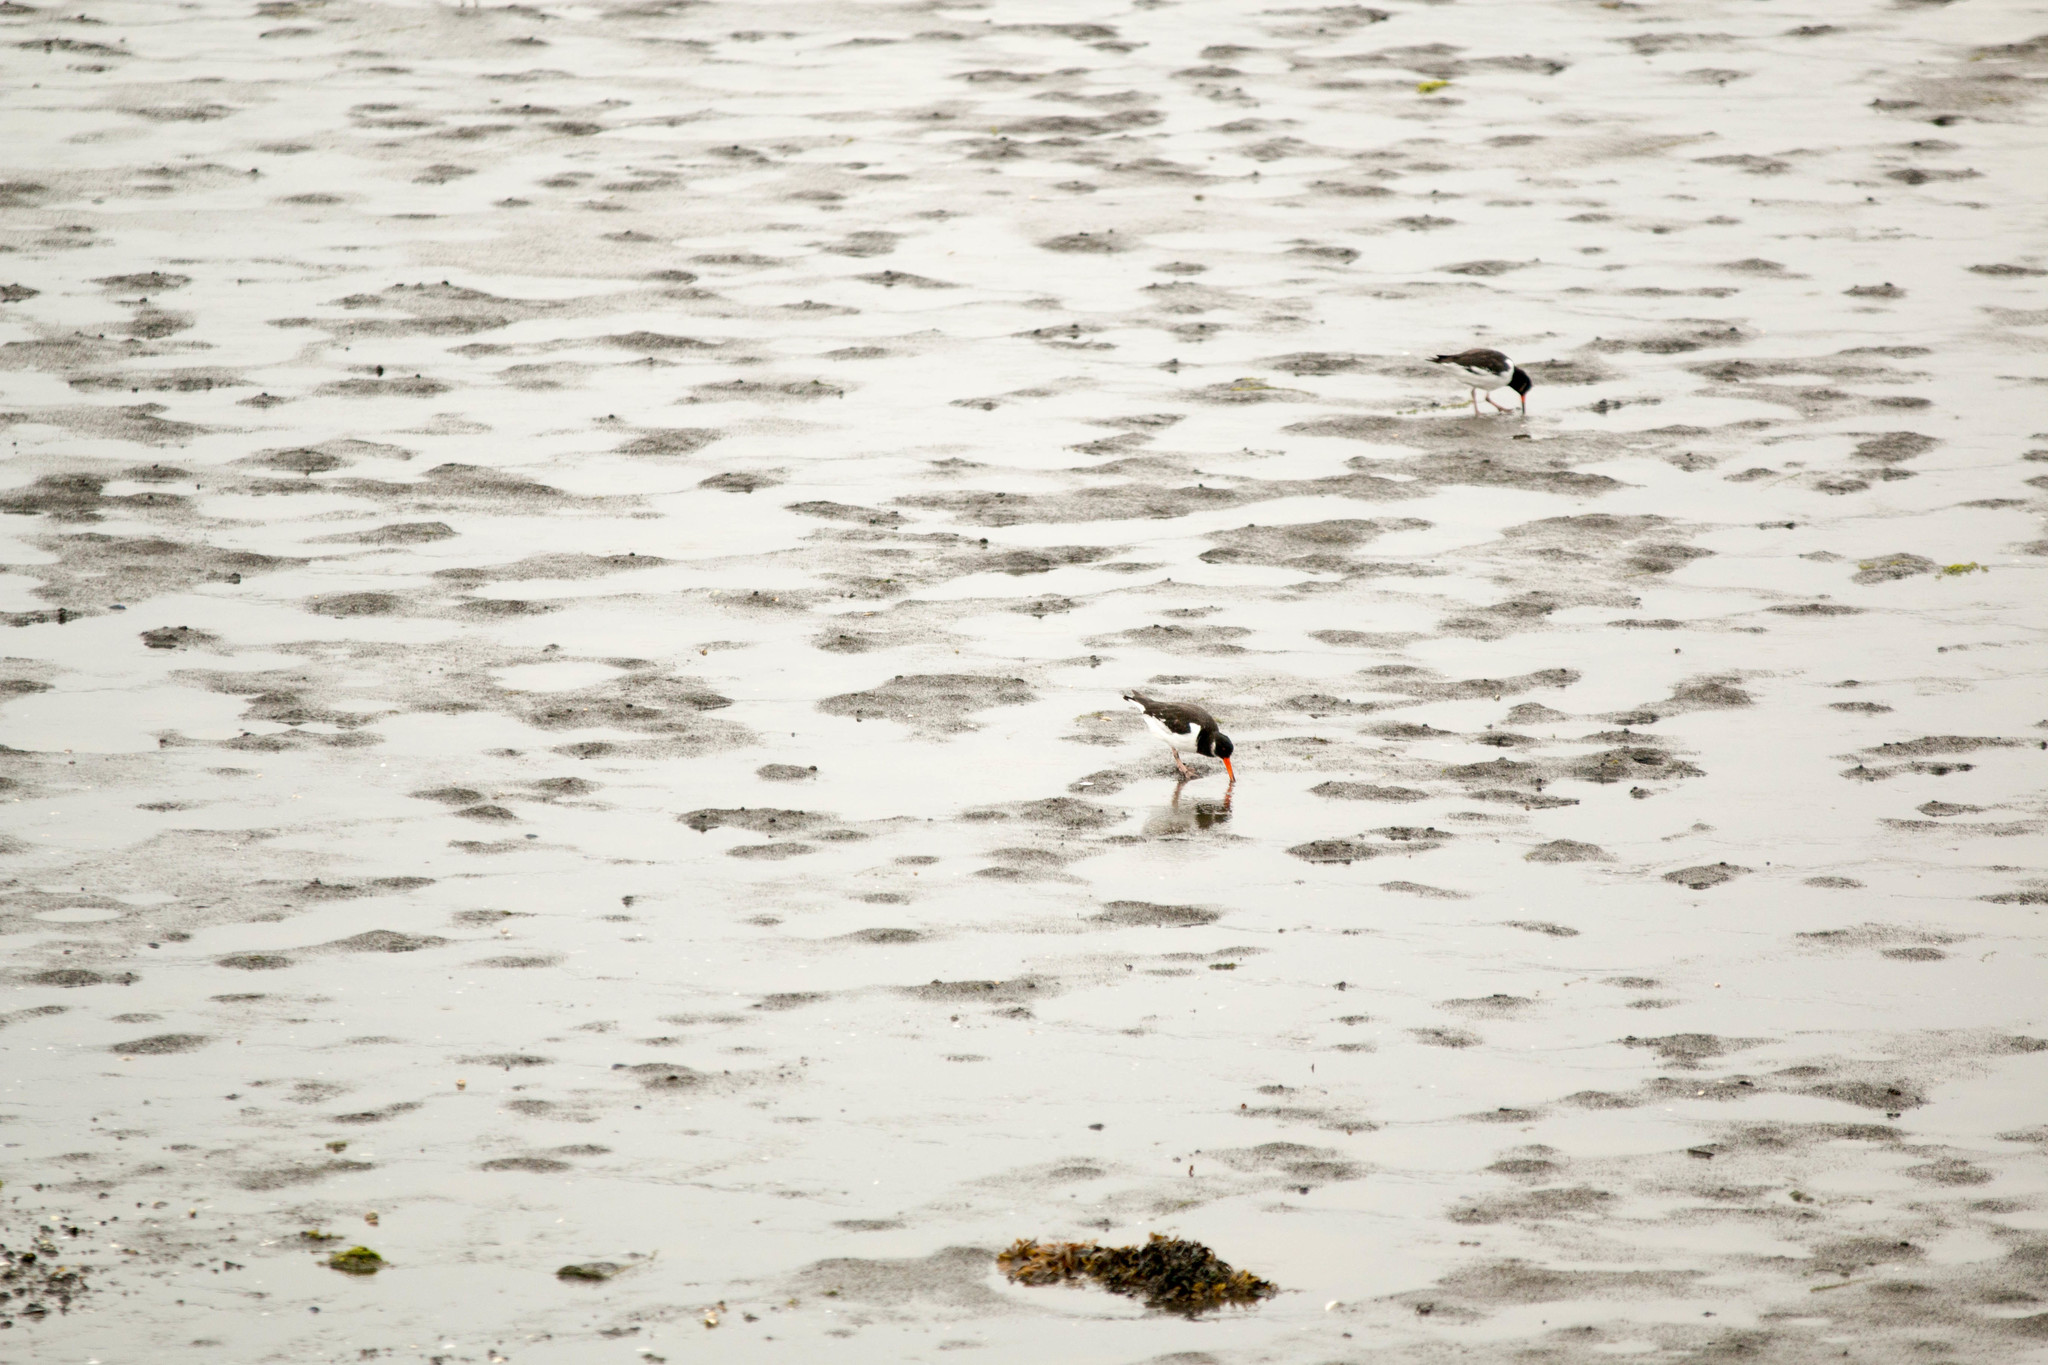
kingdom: Animalia
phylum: Chordata
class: Aves
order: Charadriiformes
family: Haematopodidae
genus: Haematopus
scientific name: Haematopus ostralegus
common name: Eurasian oystercatcher
